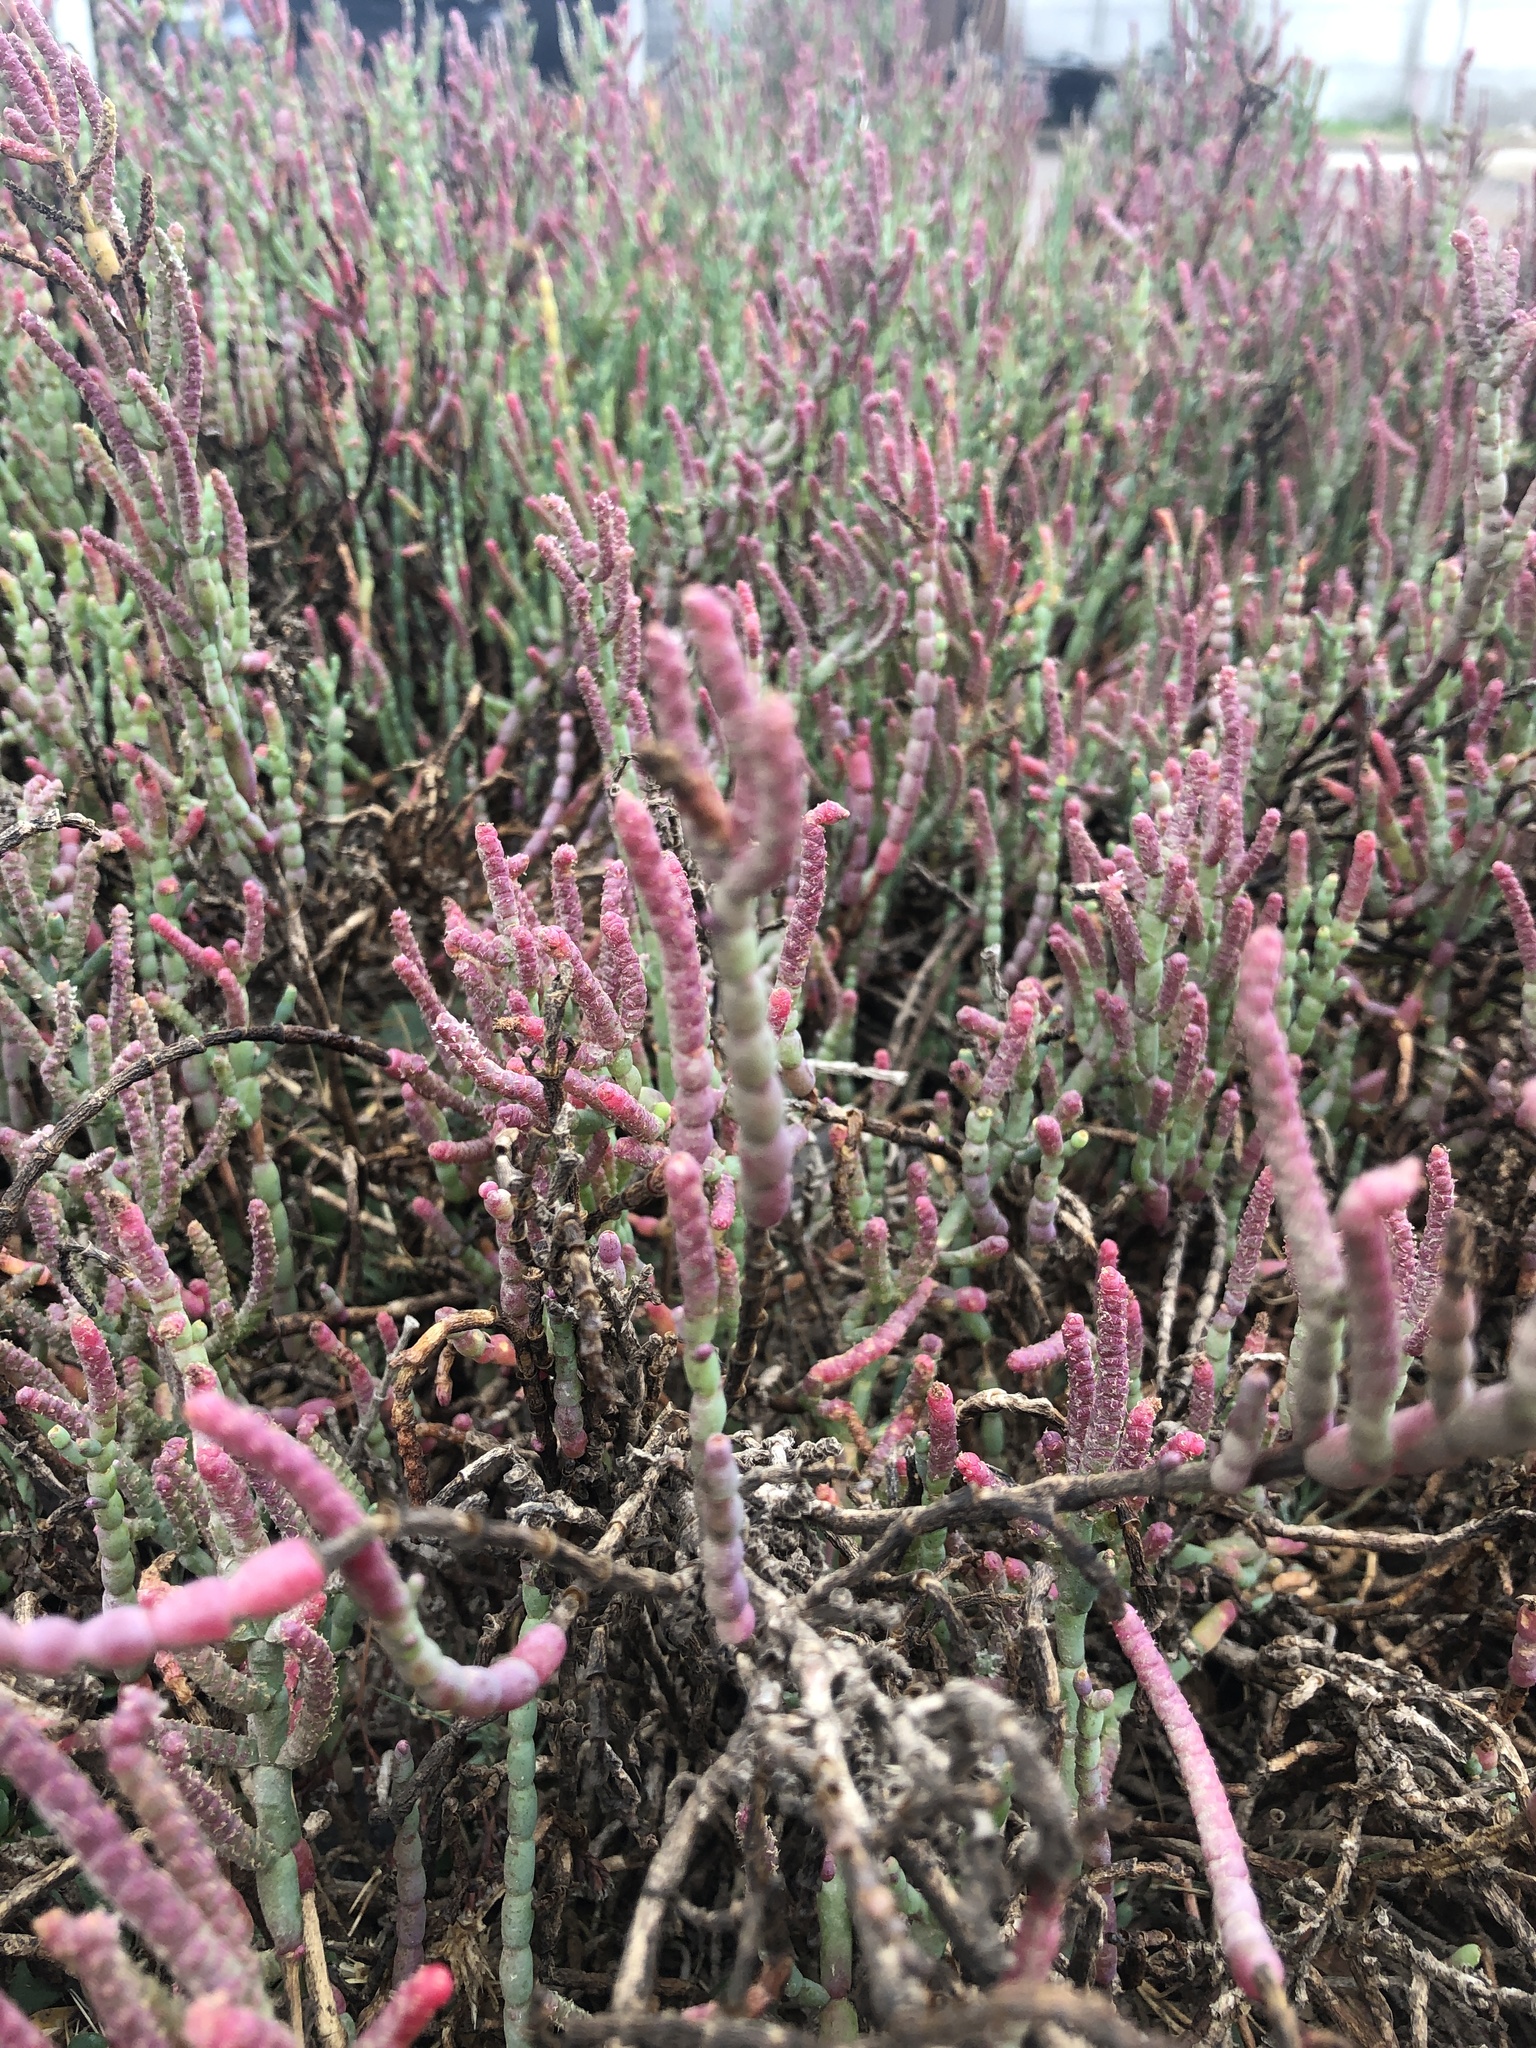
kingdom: Plantae
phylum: Tracheophyta
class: Magnoliopsida
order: Caryophyllales
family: Amaranthaceae
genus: Salicornia
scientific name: Salicornia neei
